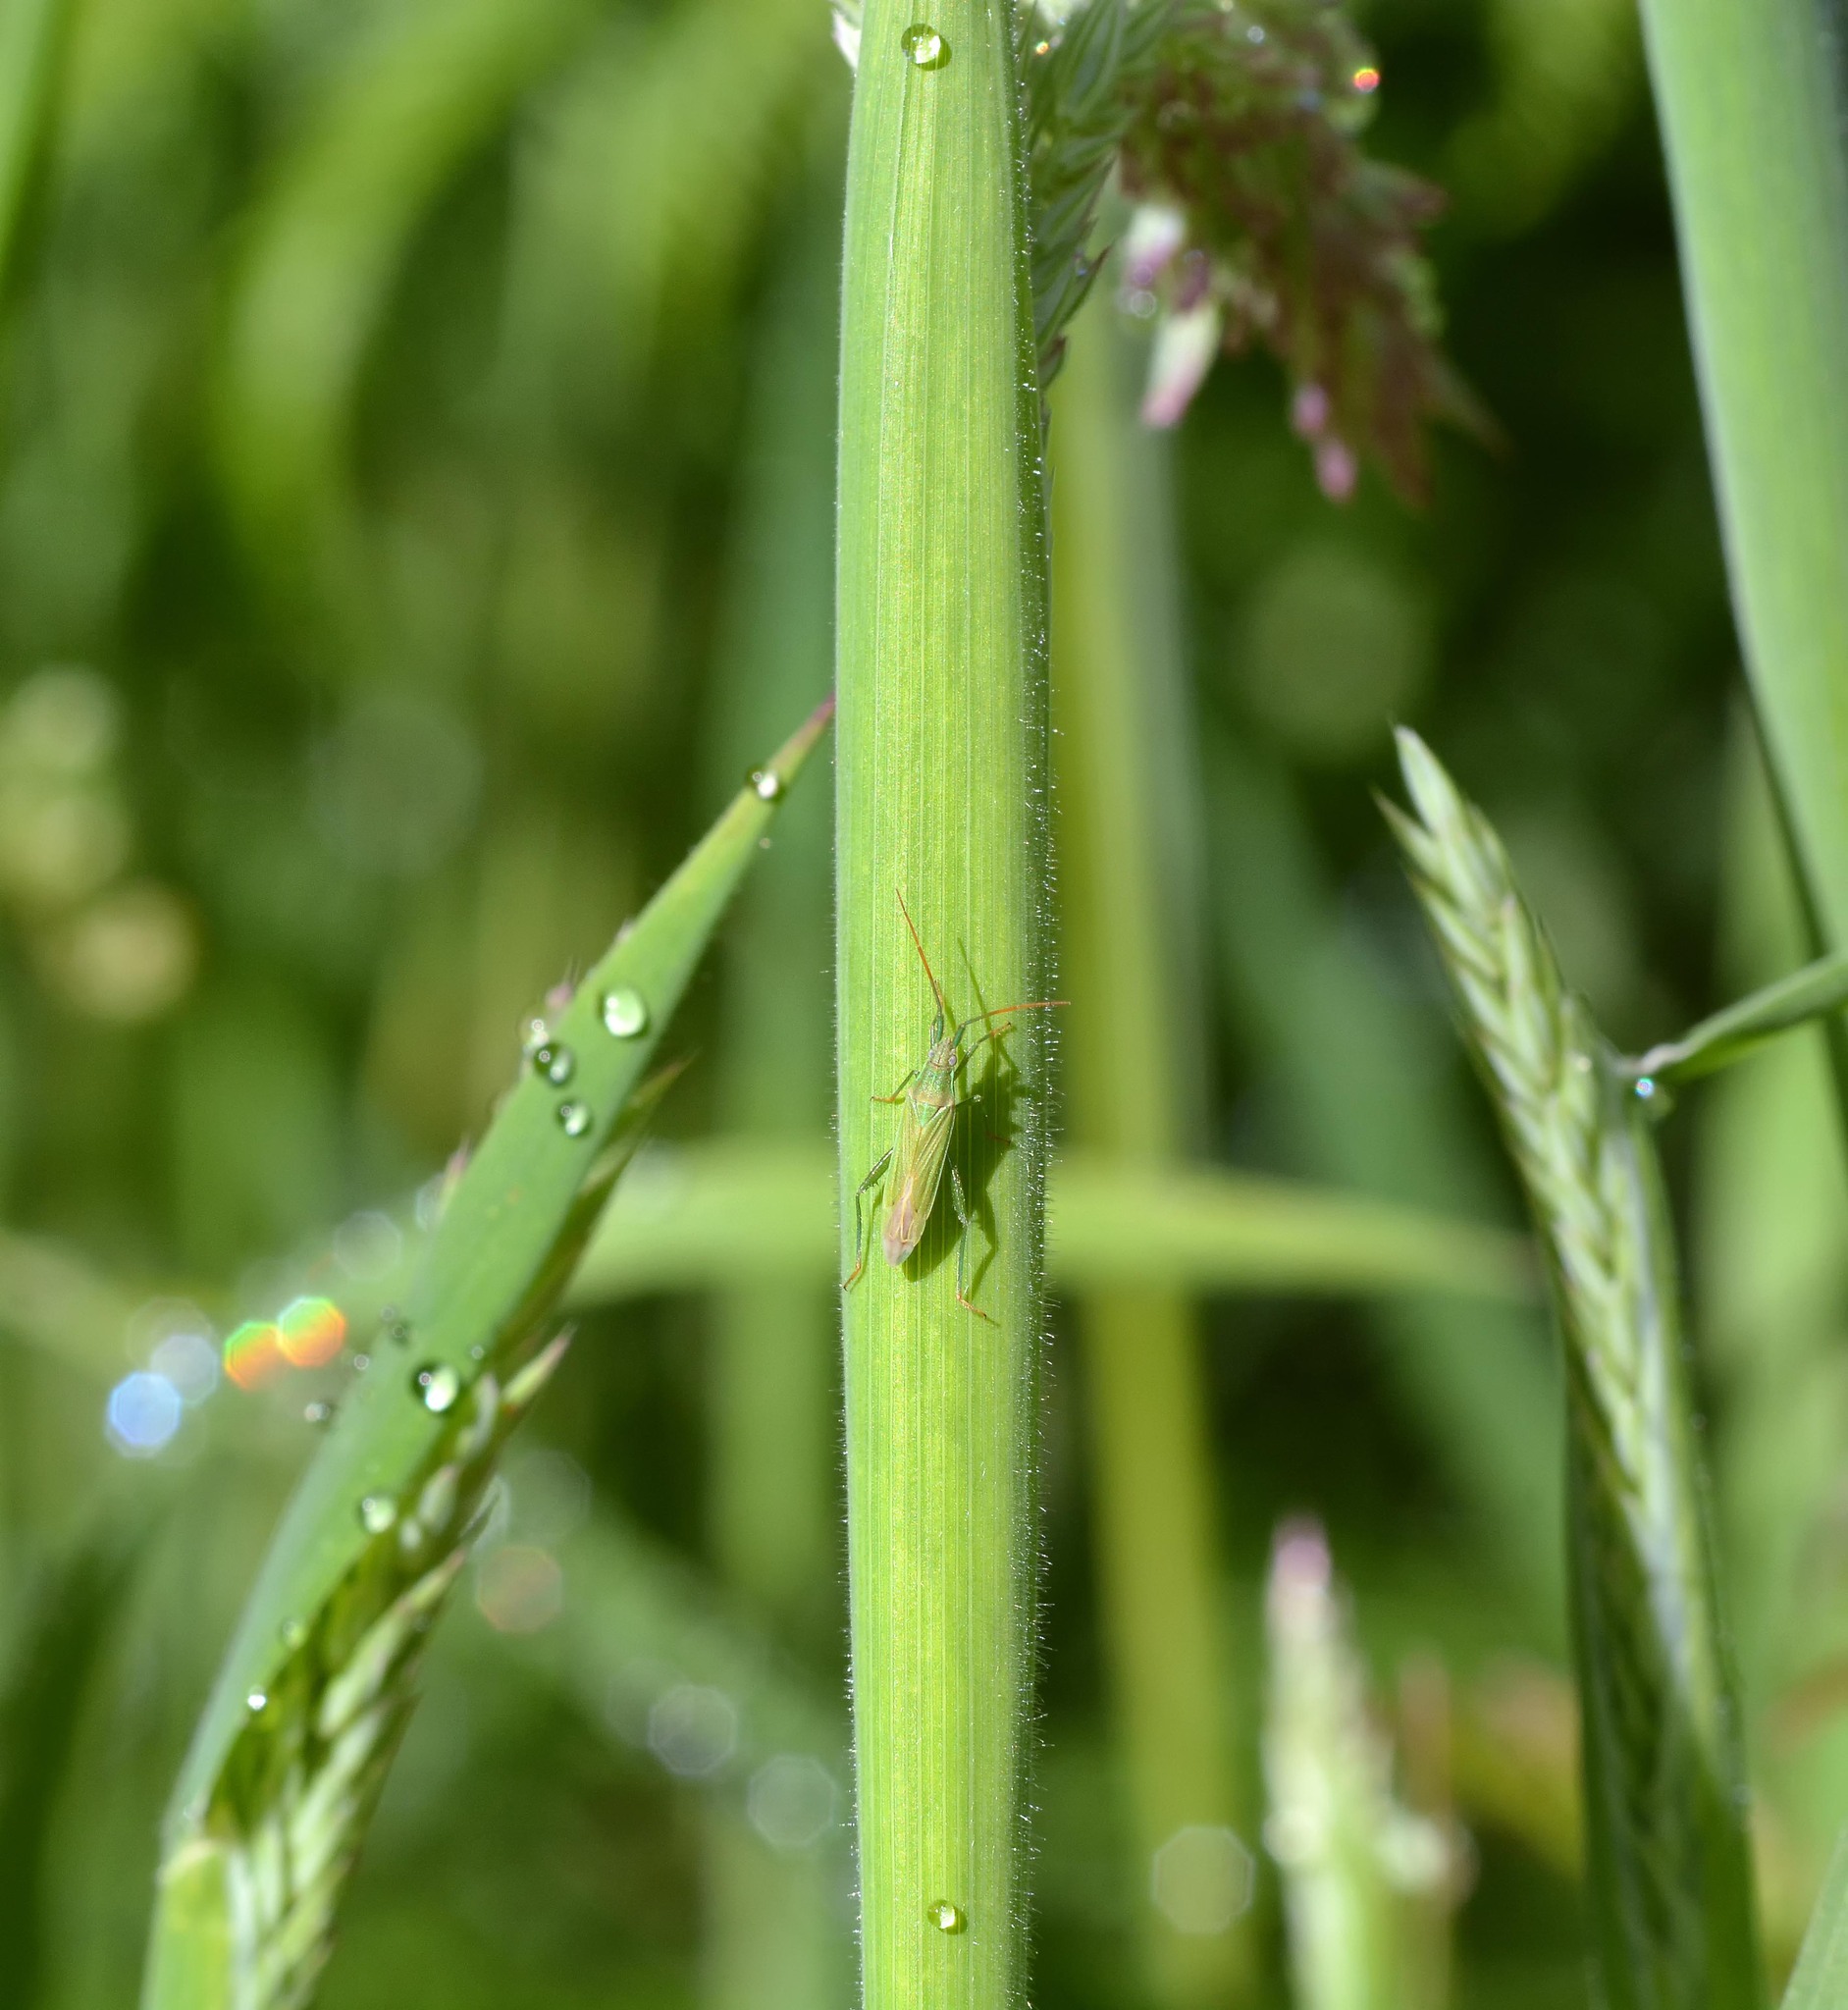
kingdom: Animalia
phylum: Arthropoda
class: Insecta
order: Hemiptera
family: Miridae
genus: Stenodema
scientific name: Stenodema calcarata
